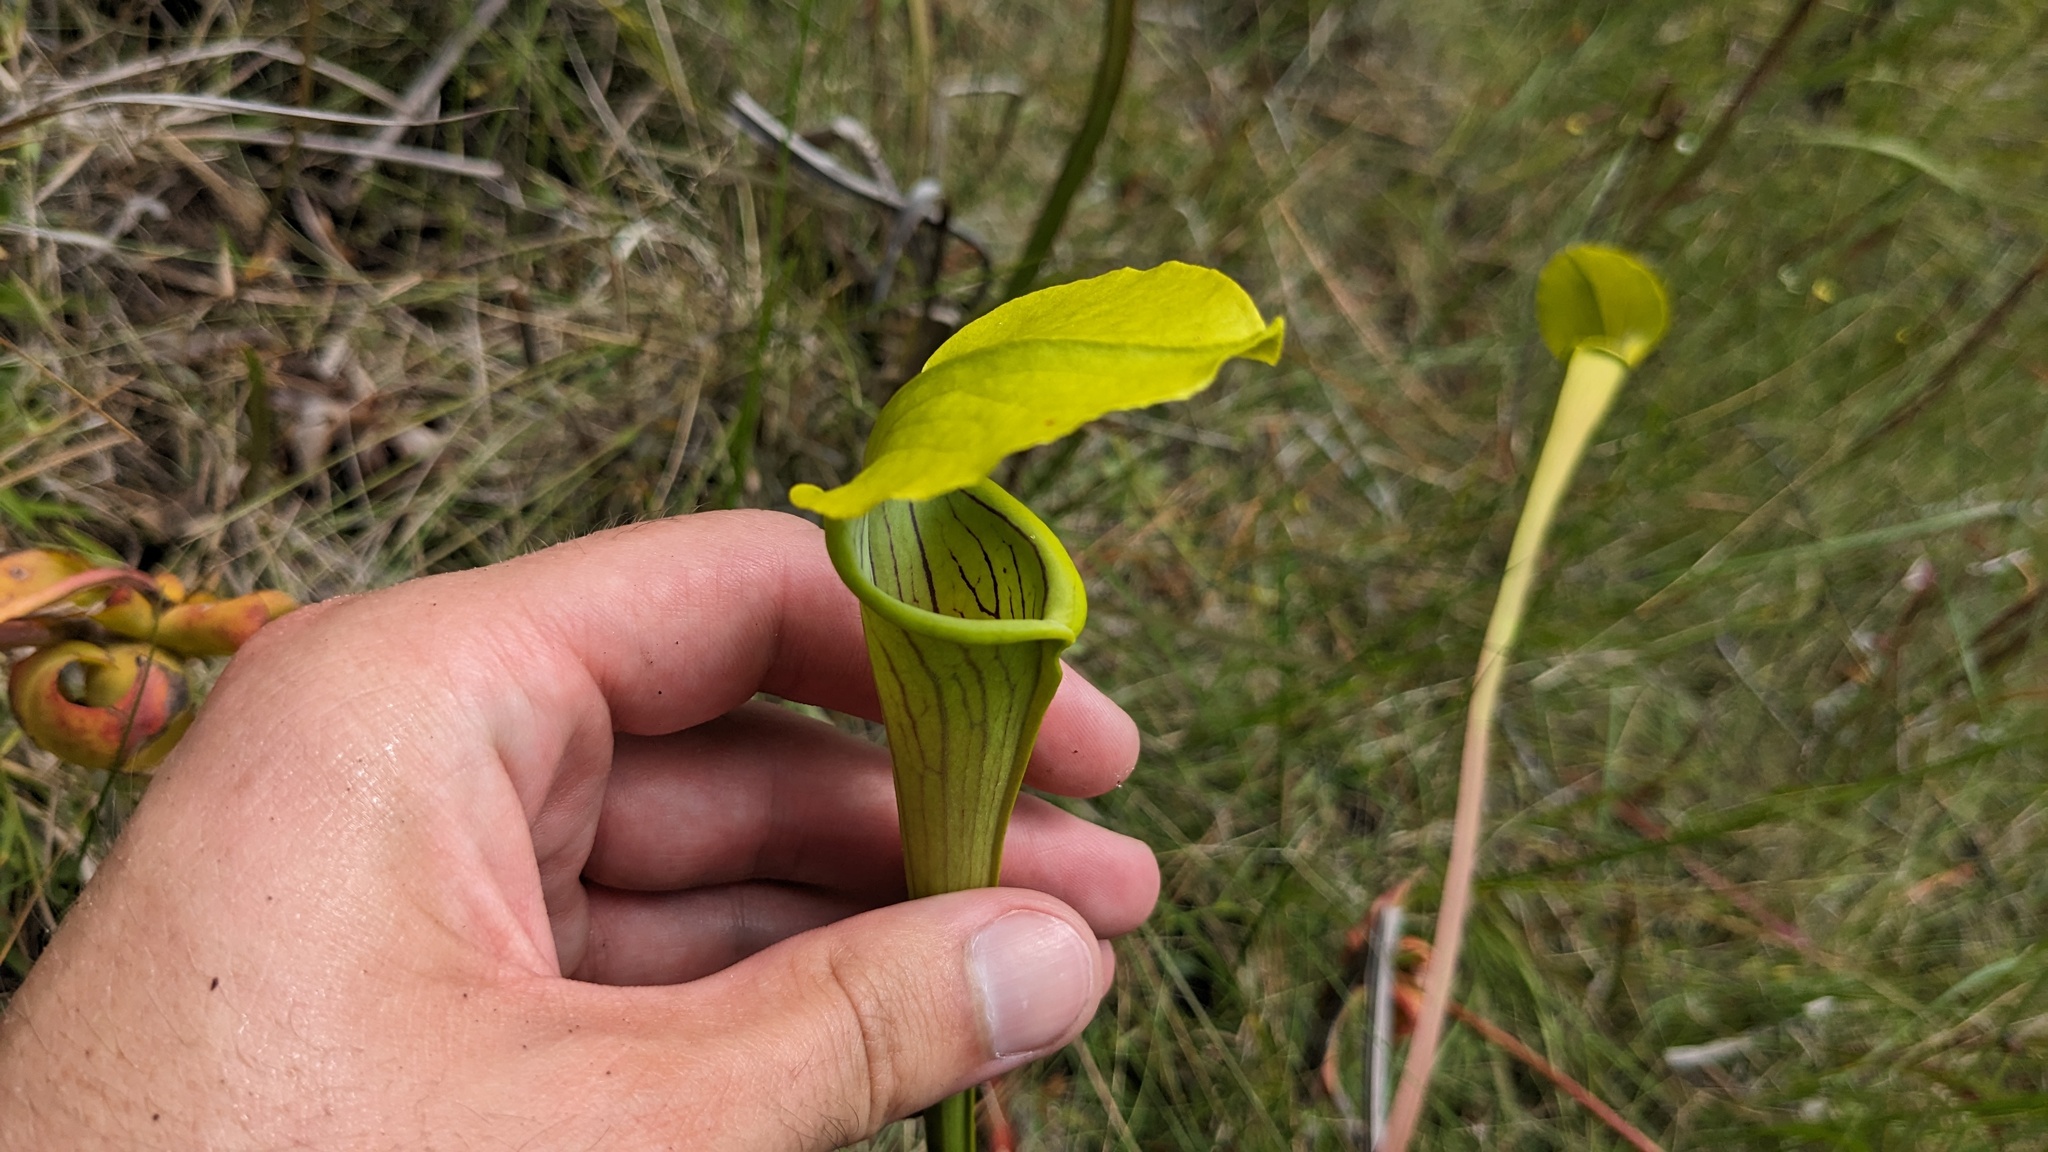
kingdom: Plantae
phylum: Tracheophyta
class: Magnoliopsida
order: Ericales
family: Sarraceniaceae
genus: Sarracenia
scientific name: Sarracenia alata
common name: Yellow trumpets
